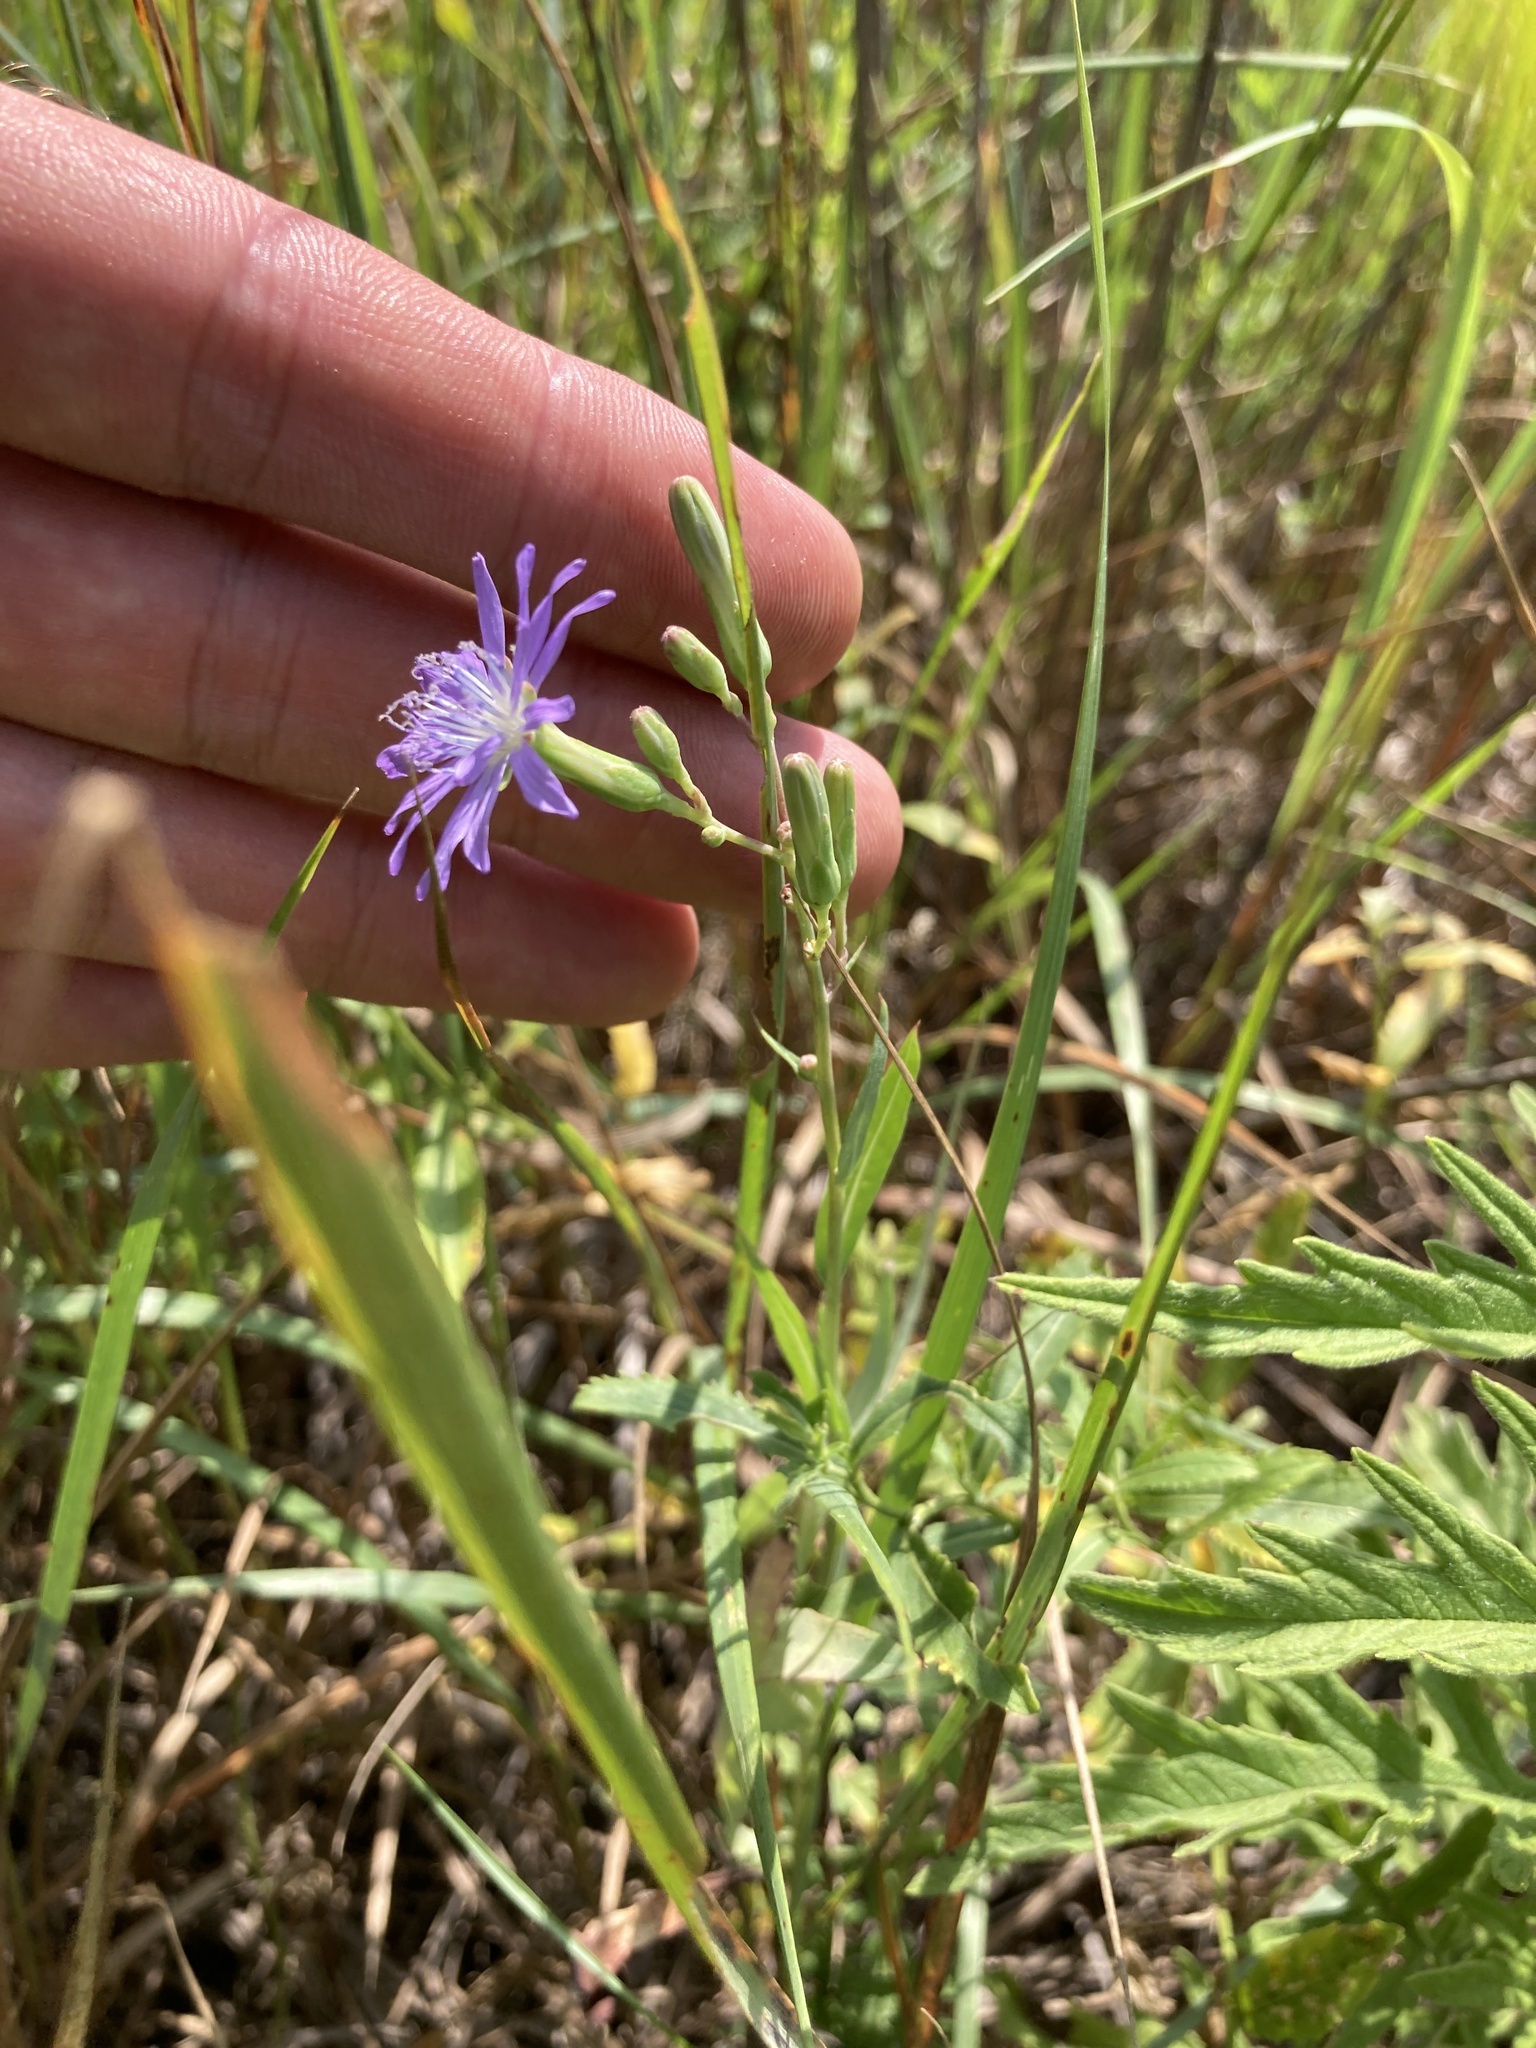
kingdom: Plantae
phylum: Tracheophyta
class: Magnoliopsida
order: Asterales
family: Asteraceae
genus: Lactuca
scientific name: Lactuca tatarica
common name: Blue lettuce
